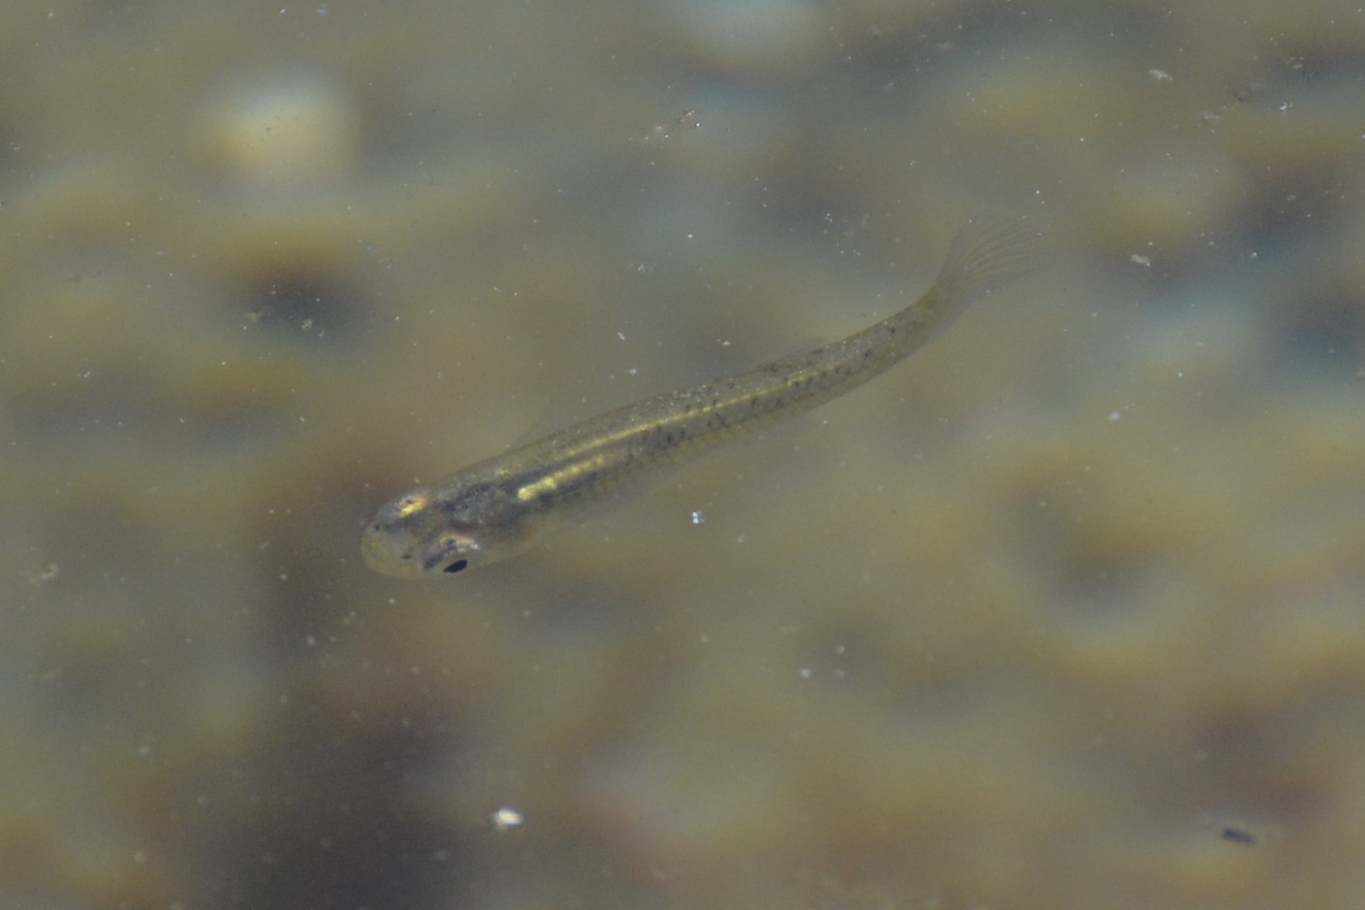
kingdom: Animalia
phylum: Chordata
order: Cyprinodontiformes
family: Poeciliidae
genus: Gambusia
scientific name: Gambusia holbrooki
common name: Eastern mosquitofish
